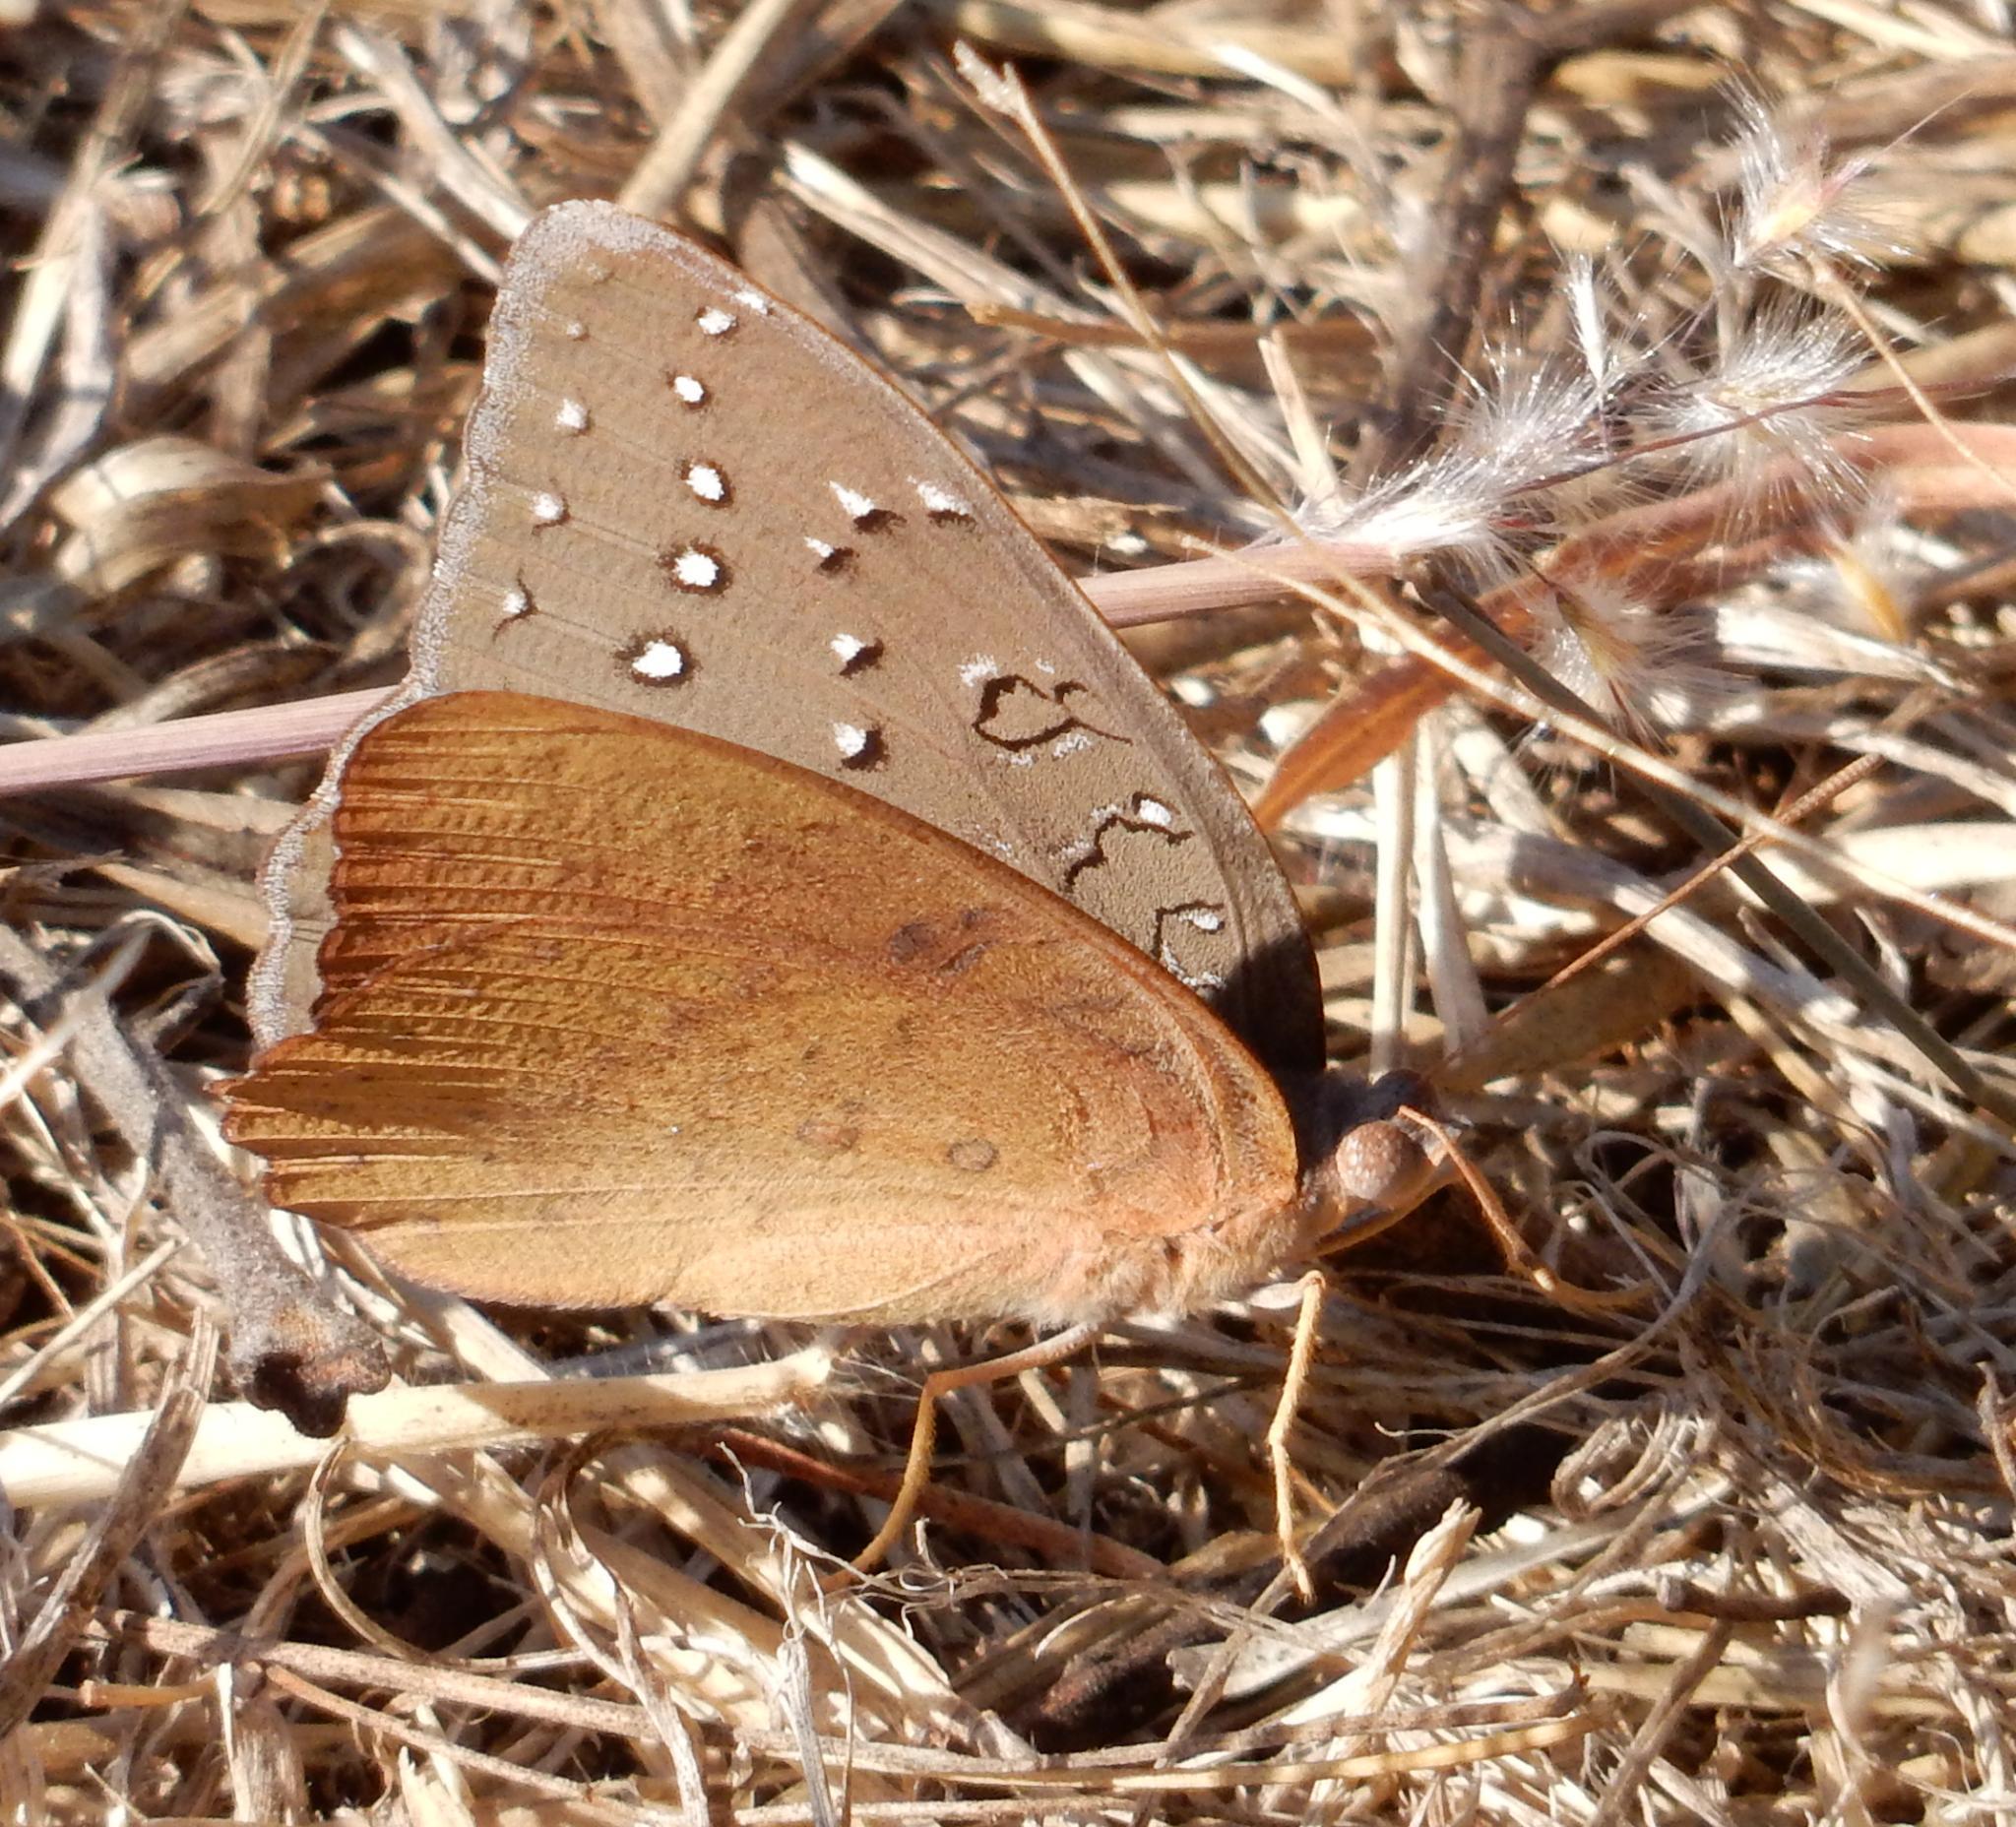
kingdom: Animalia
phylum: Arthropoda
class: Insecta
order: Lepidoptera
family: Nymphalidae
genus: Hamanumida
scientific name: Hamanumida daedalus
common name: Guinea-fowl butterfly
